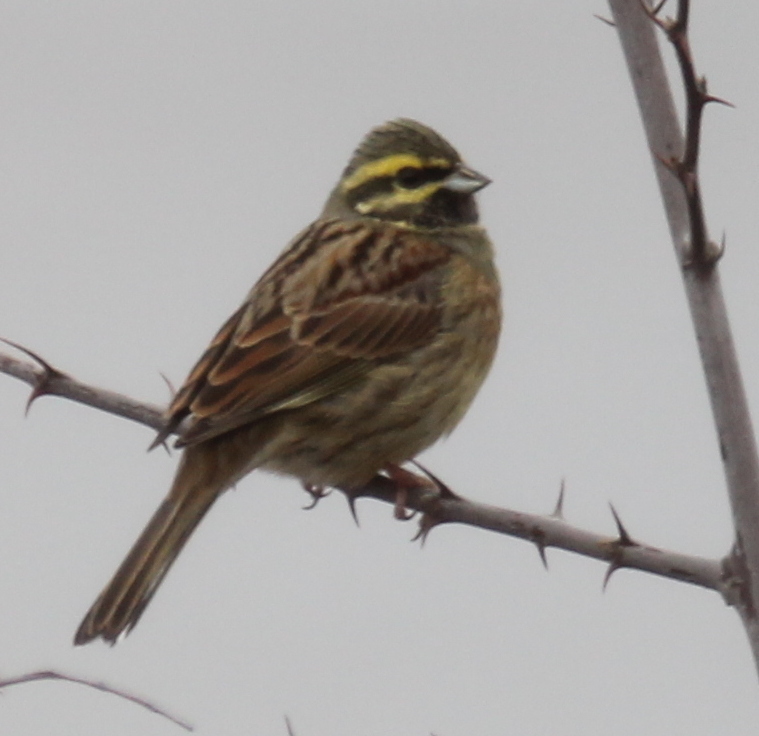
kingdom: Animalia
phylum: Chordata
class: Aves
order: Passeriformes
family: Emberizidae
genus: Emberiza
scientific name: Emberiza cirlus
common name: Cirl bunting
